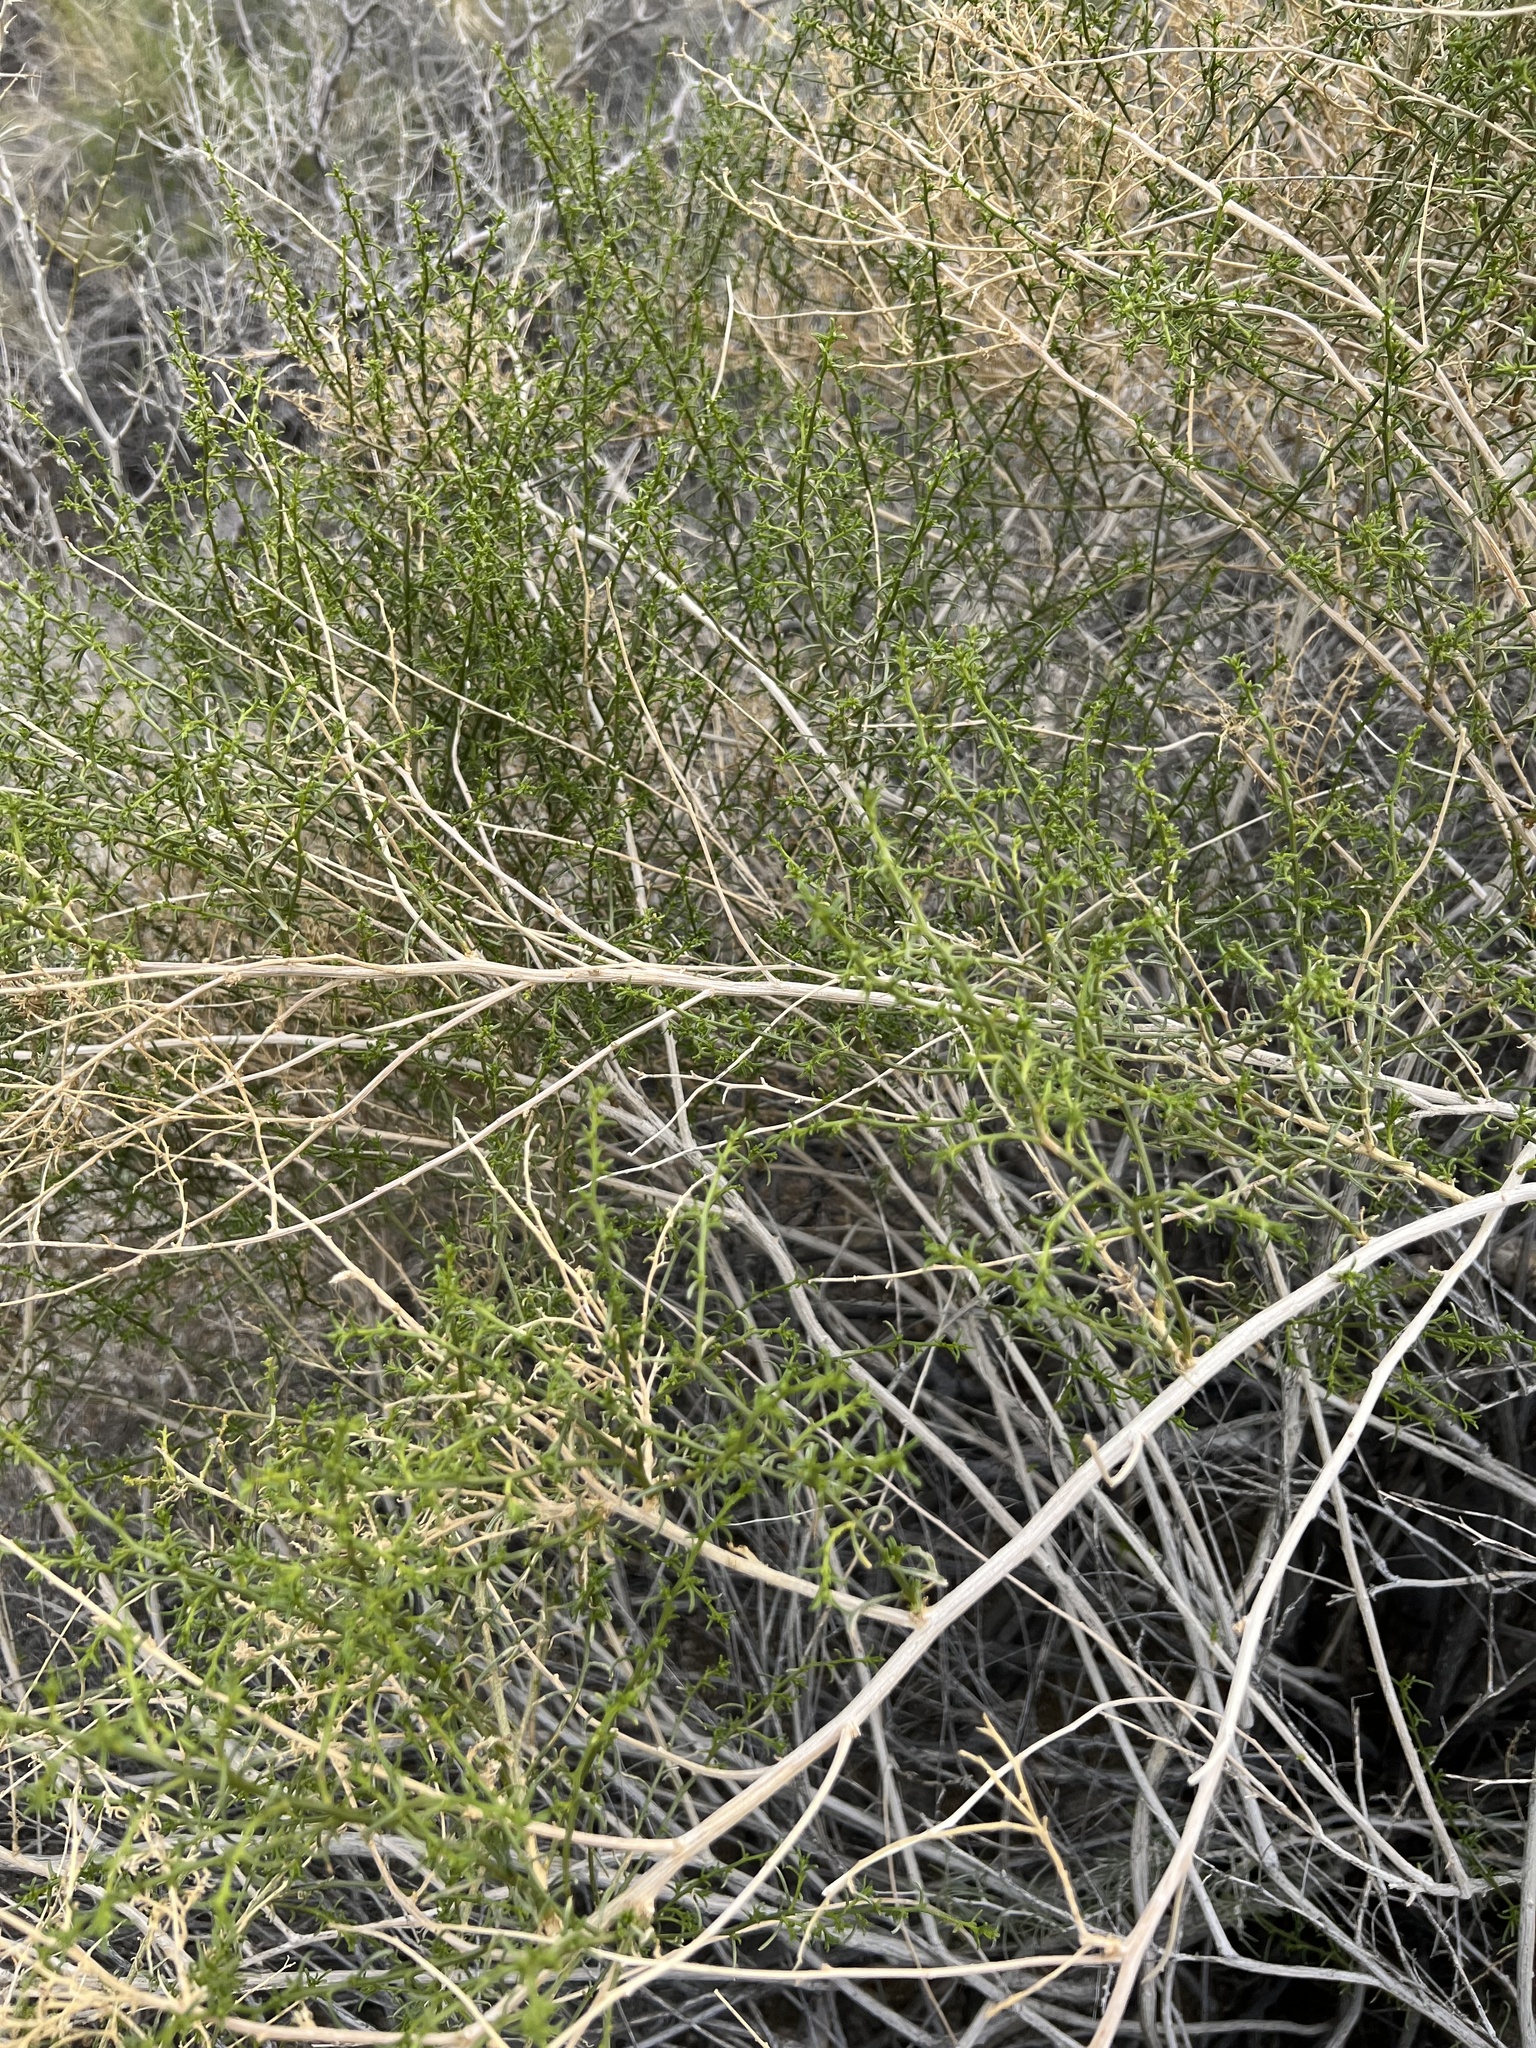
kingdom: Plantae
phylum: Tracheophyta
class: Magnoliopsida
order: Asterales
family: Asteraceae
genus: Ambrosia
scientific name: Ambrosia salsola
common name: Burrobrush
